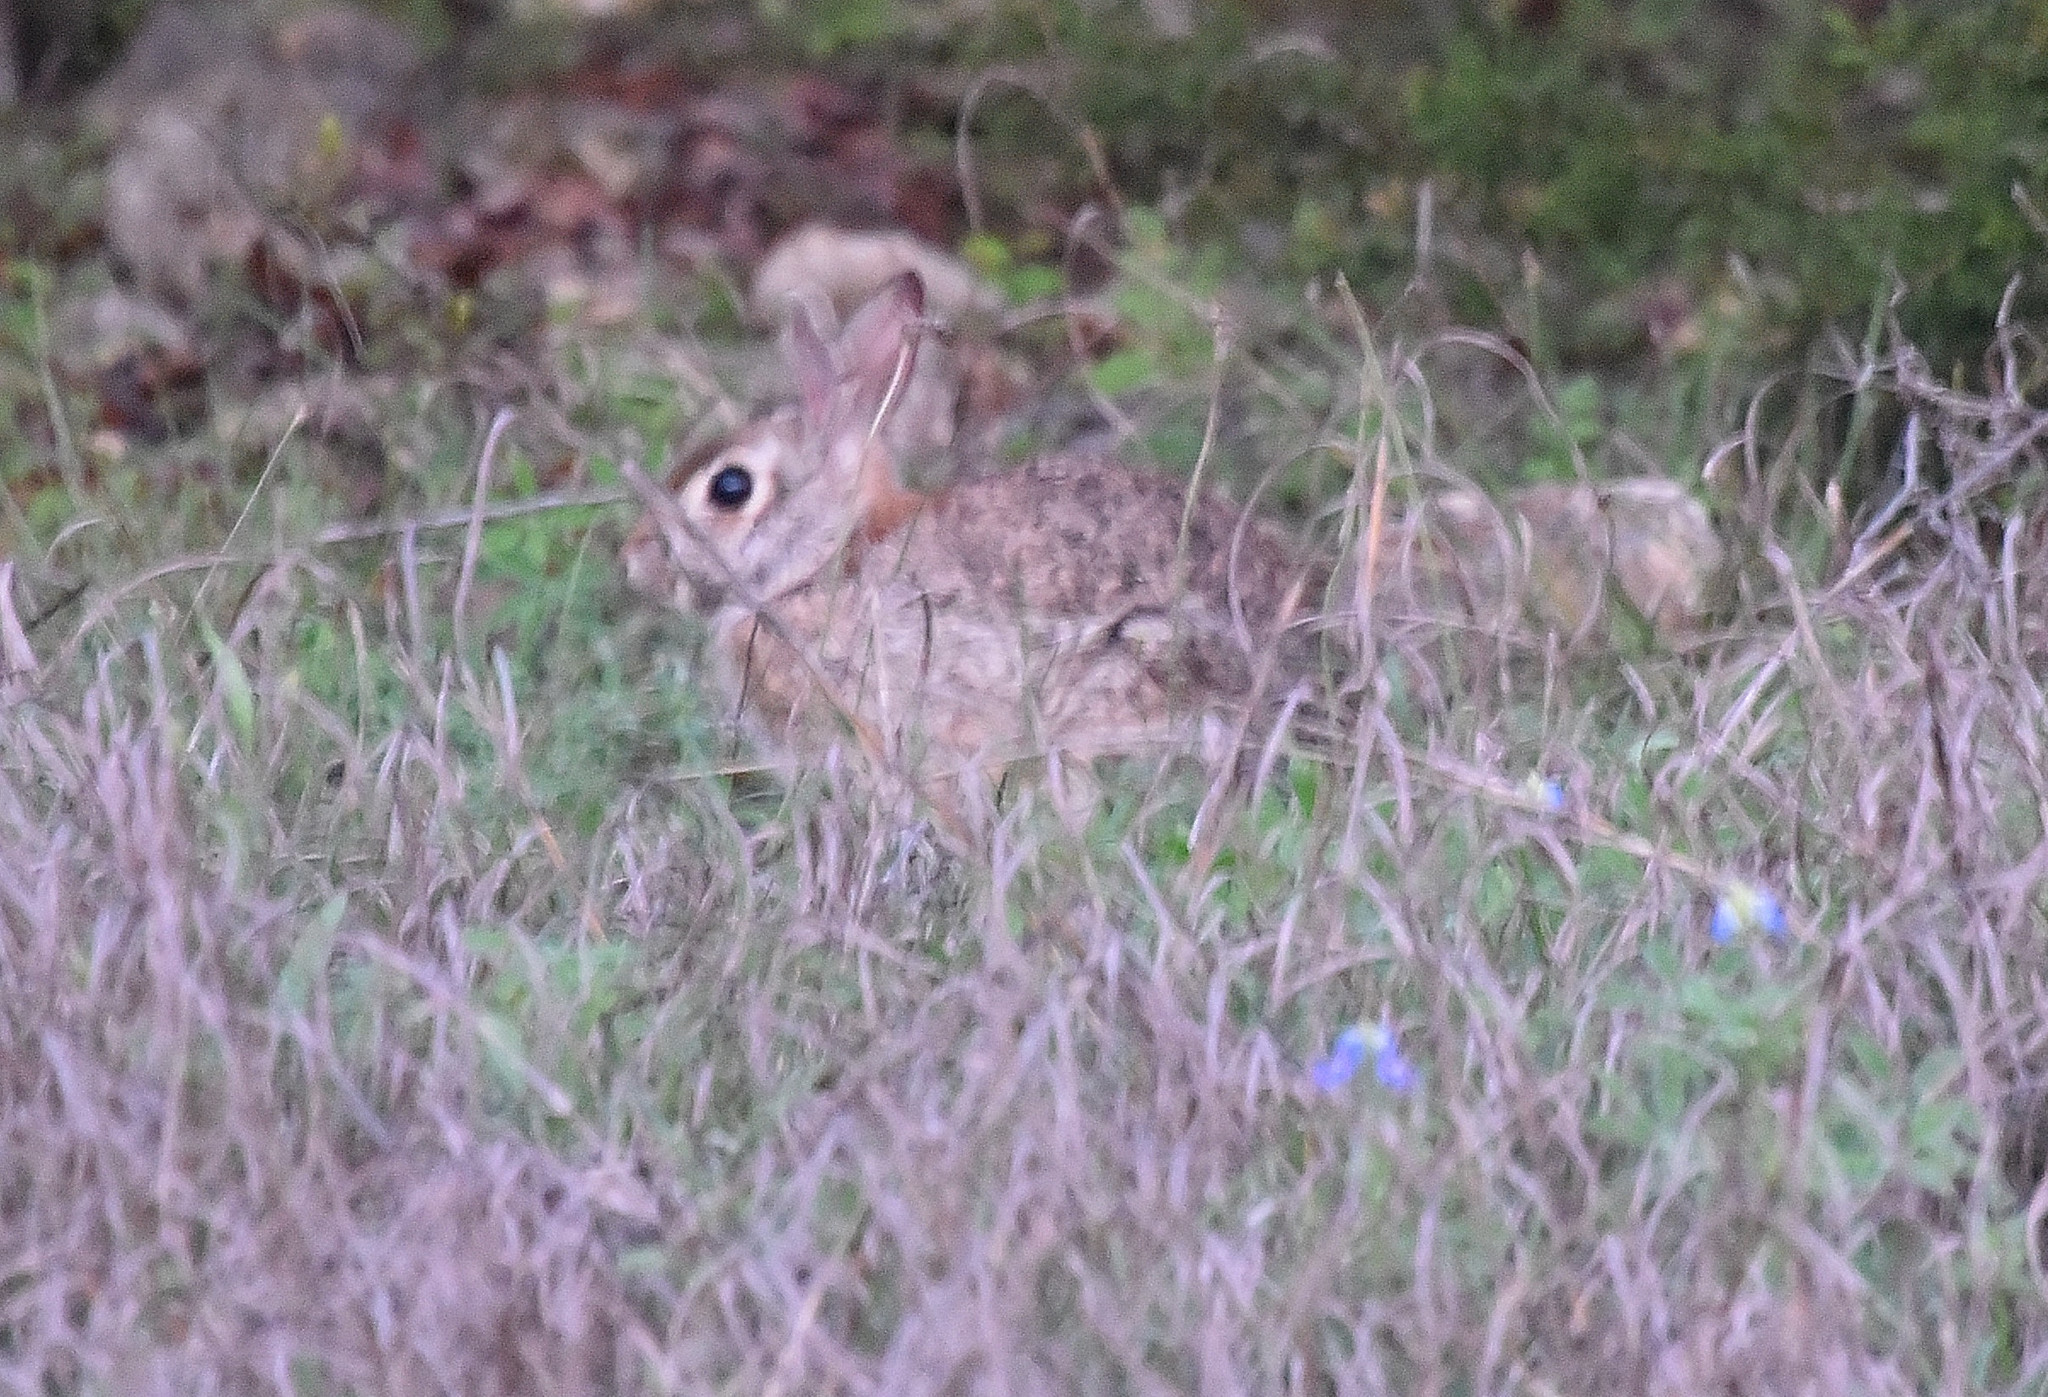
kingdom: Animalia
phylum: Chordata
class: Mammalia
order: Lagomorpha
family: Leporidae
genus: Sylvilagus
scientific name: Sylvilagus floridanus
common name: Eastern cottontail
